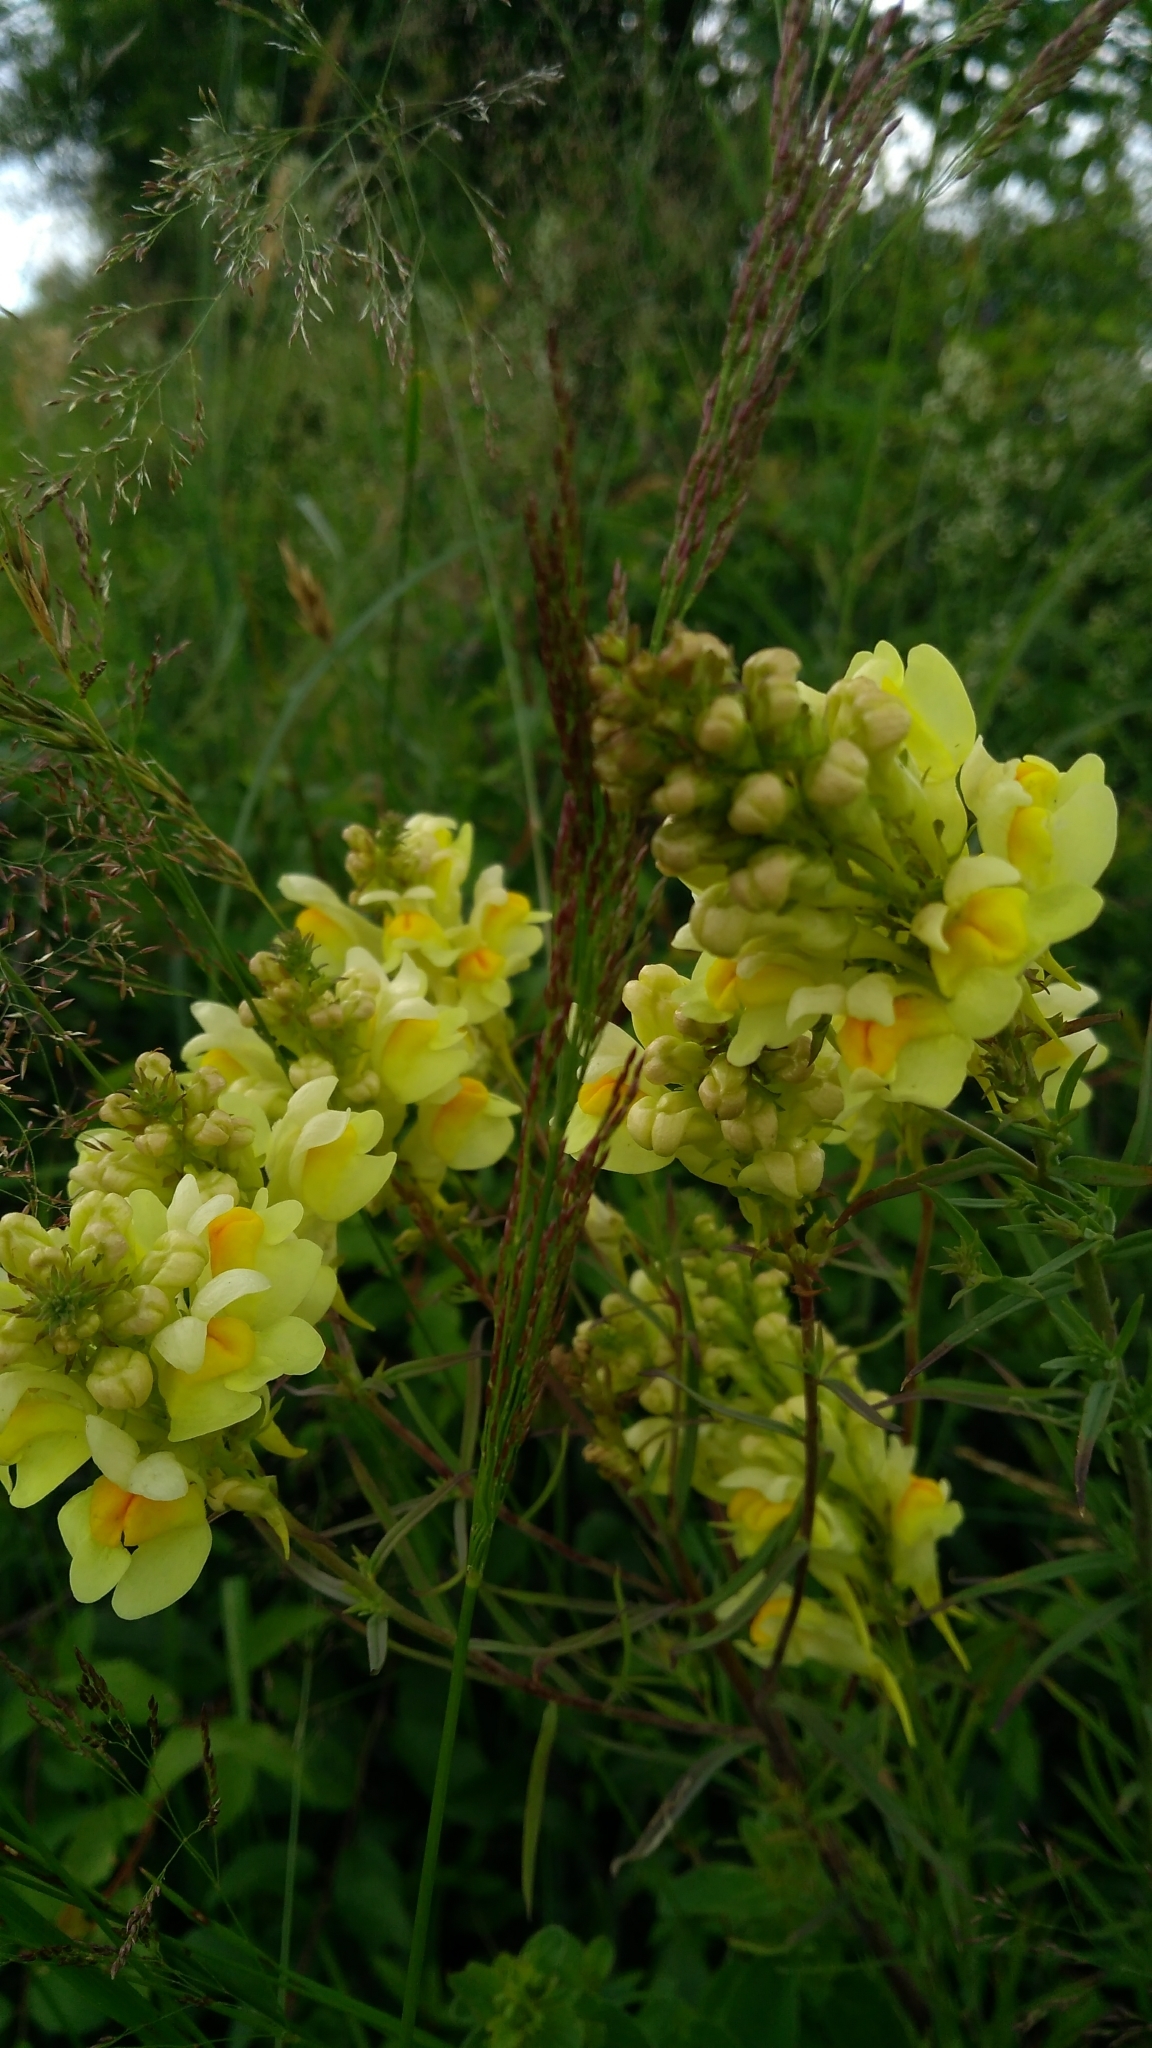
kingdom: Plantae
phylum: Tracheophyta
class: Magnoliopsida
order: Lamiales
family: Plantaginaceae
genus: Linaria
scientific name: Linaria vulgaris
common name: Butter and eggs
